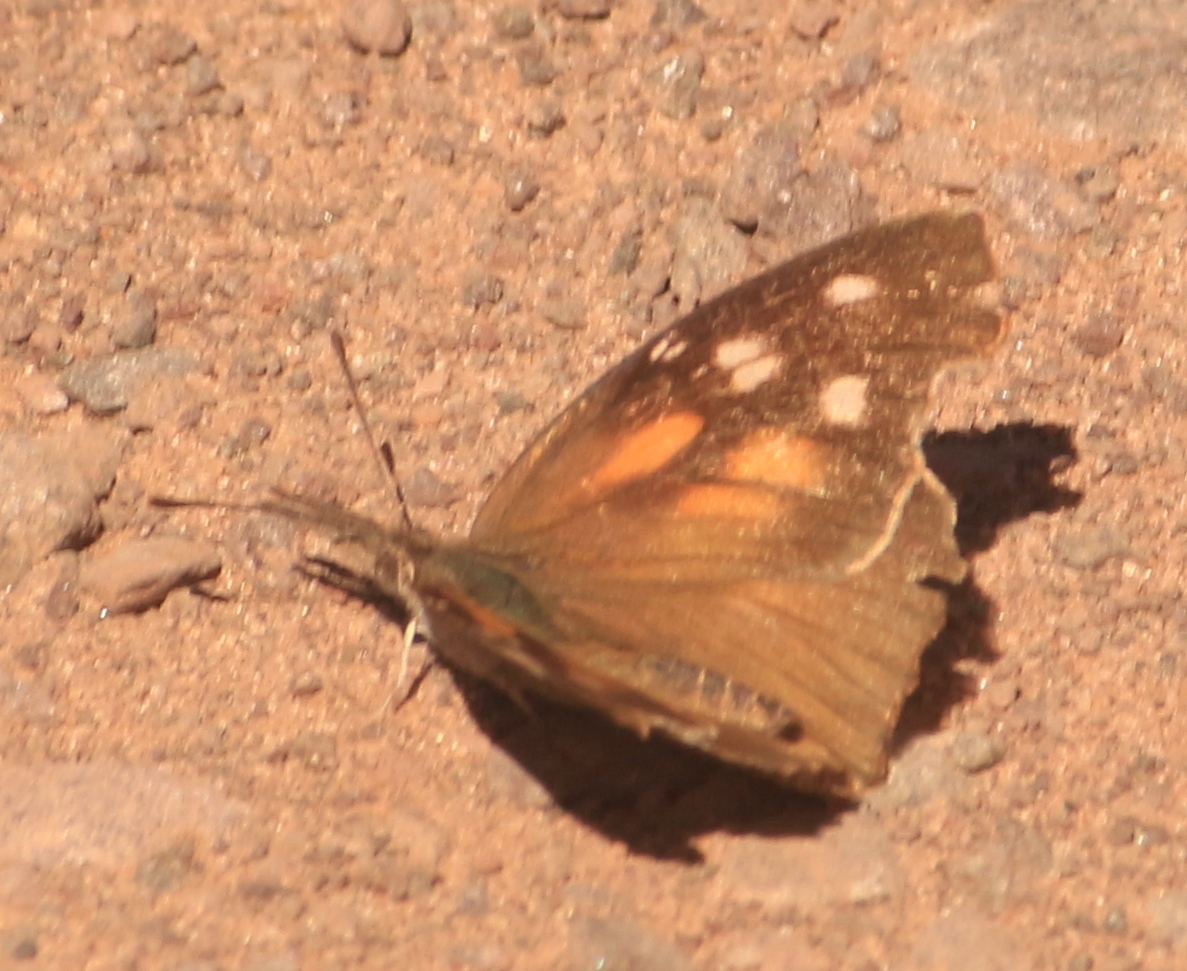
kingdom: Animalia
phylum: Arthropoda
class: Insecta
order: Lepidoptera
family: Nymphalidae
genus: Libytheana
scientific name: Libytheana carinenta
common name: American snout
